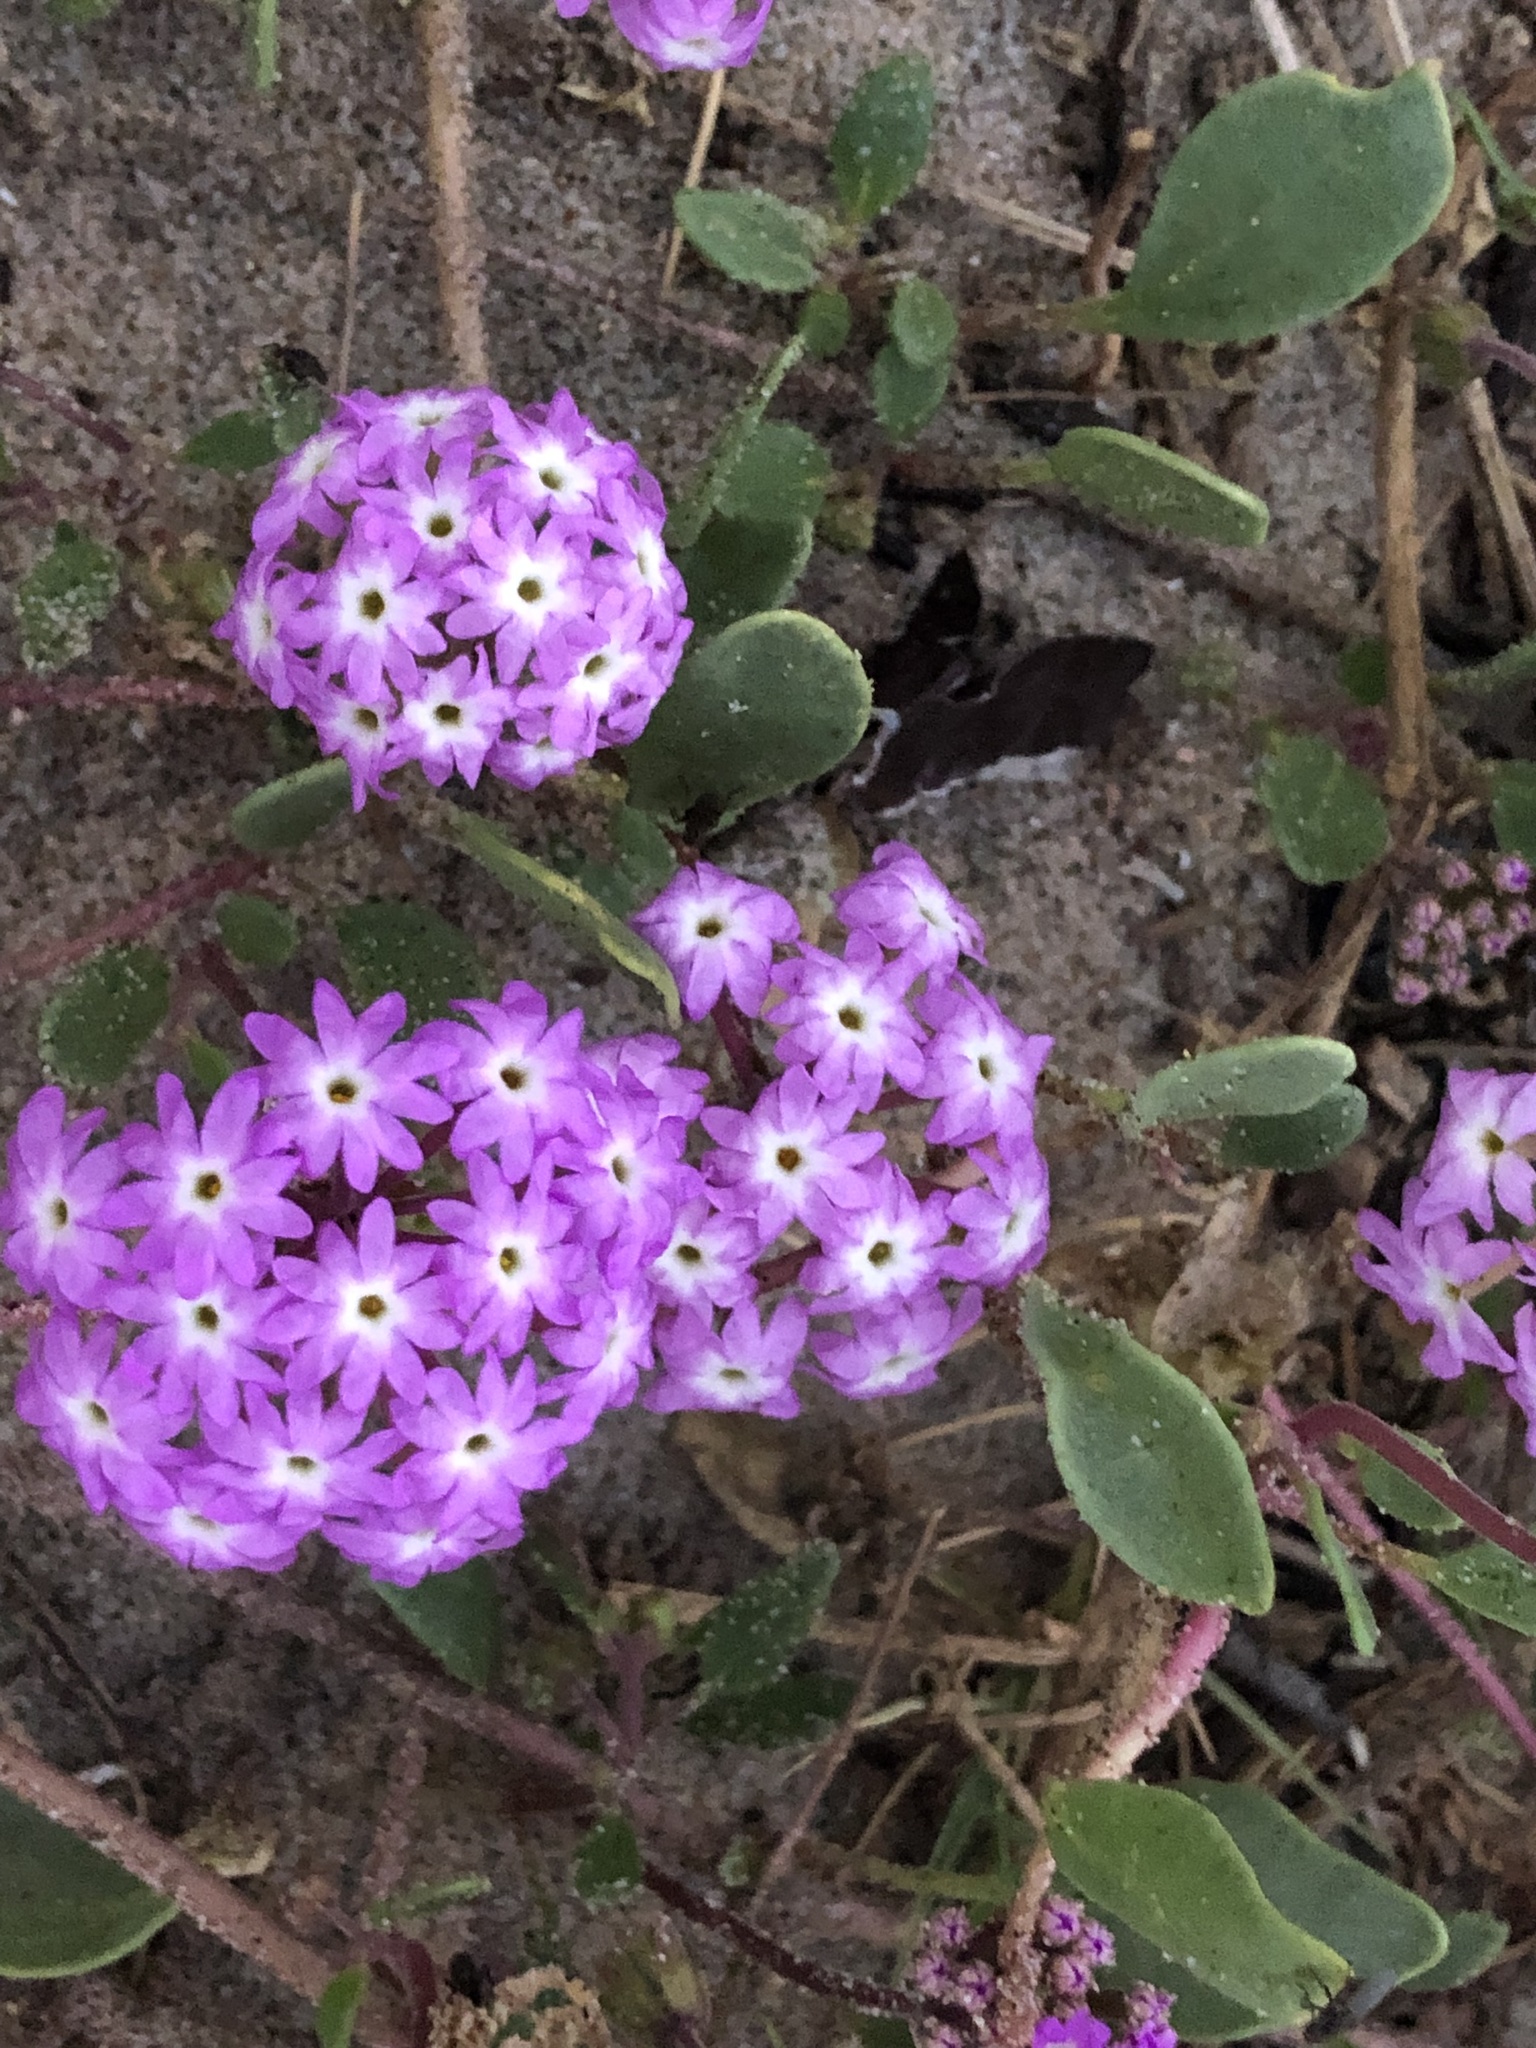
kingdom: Plantae
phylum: Tracheophyta
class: Magnoliopsida
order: Caryophyllales
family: Nyctaginaceae
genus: Abronia
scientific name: Abronia umbellata
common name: Sand-verbena
